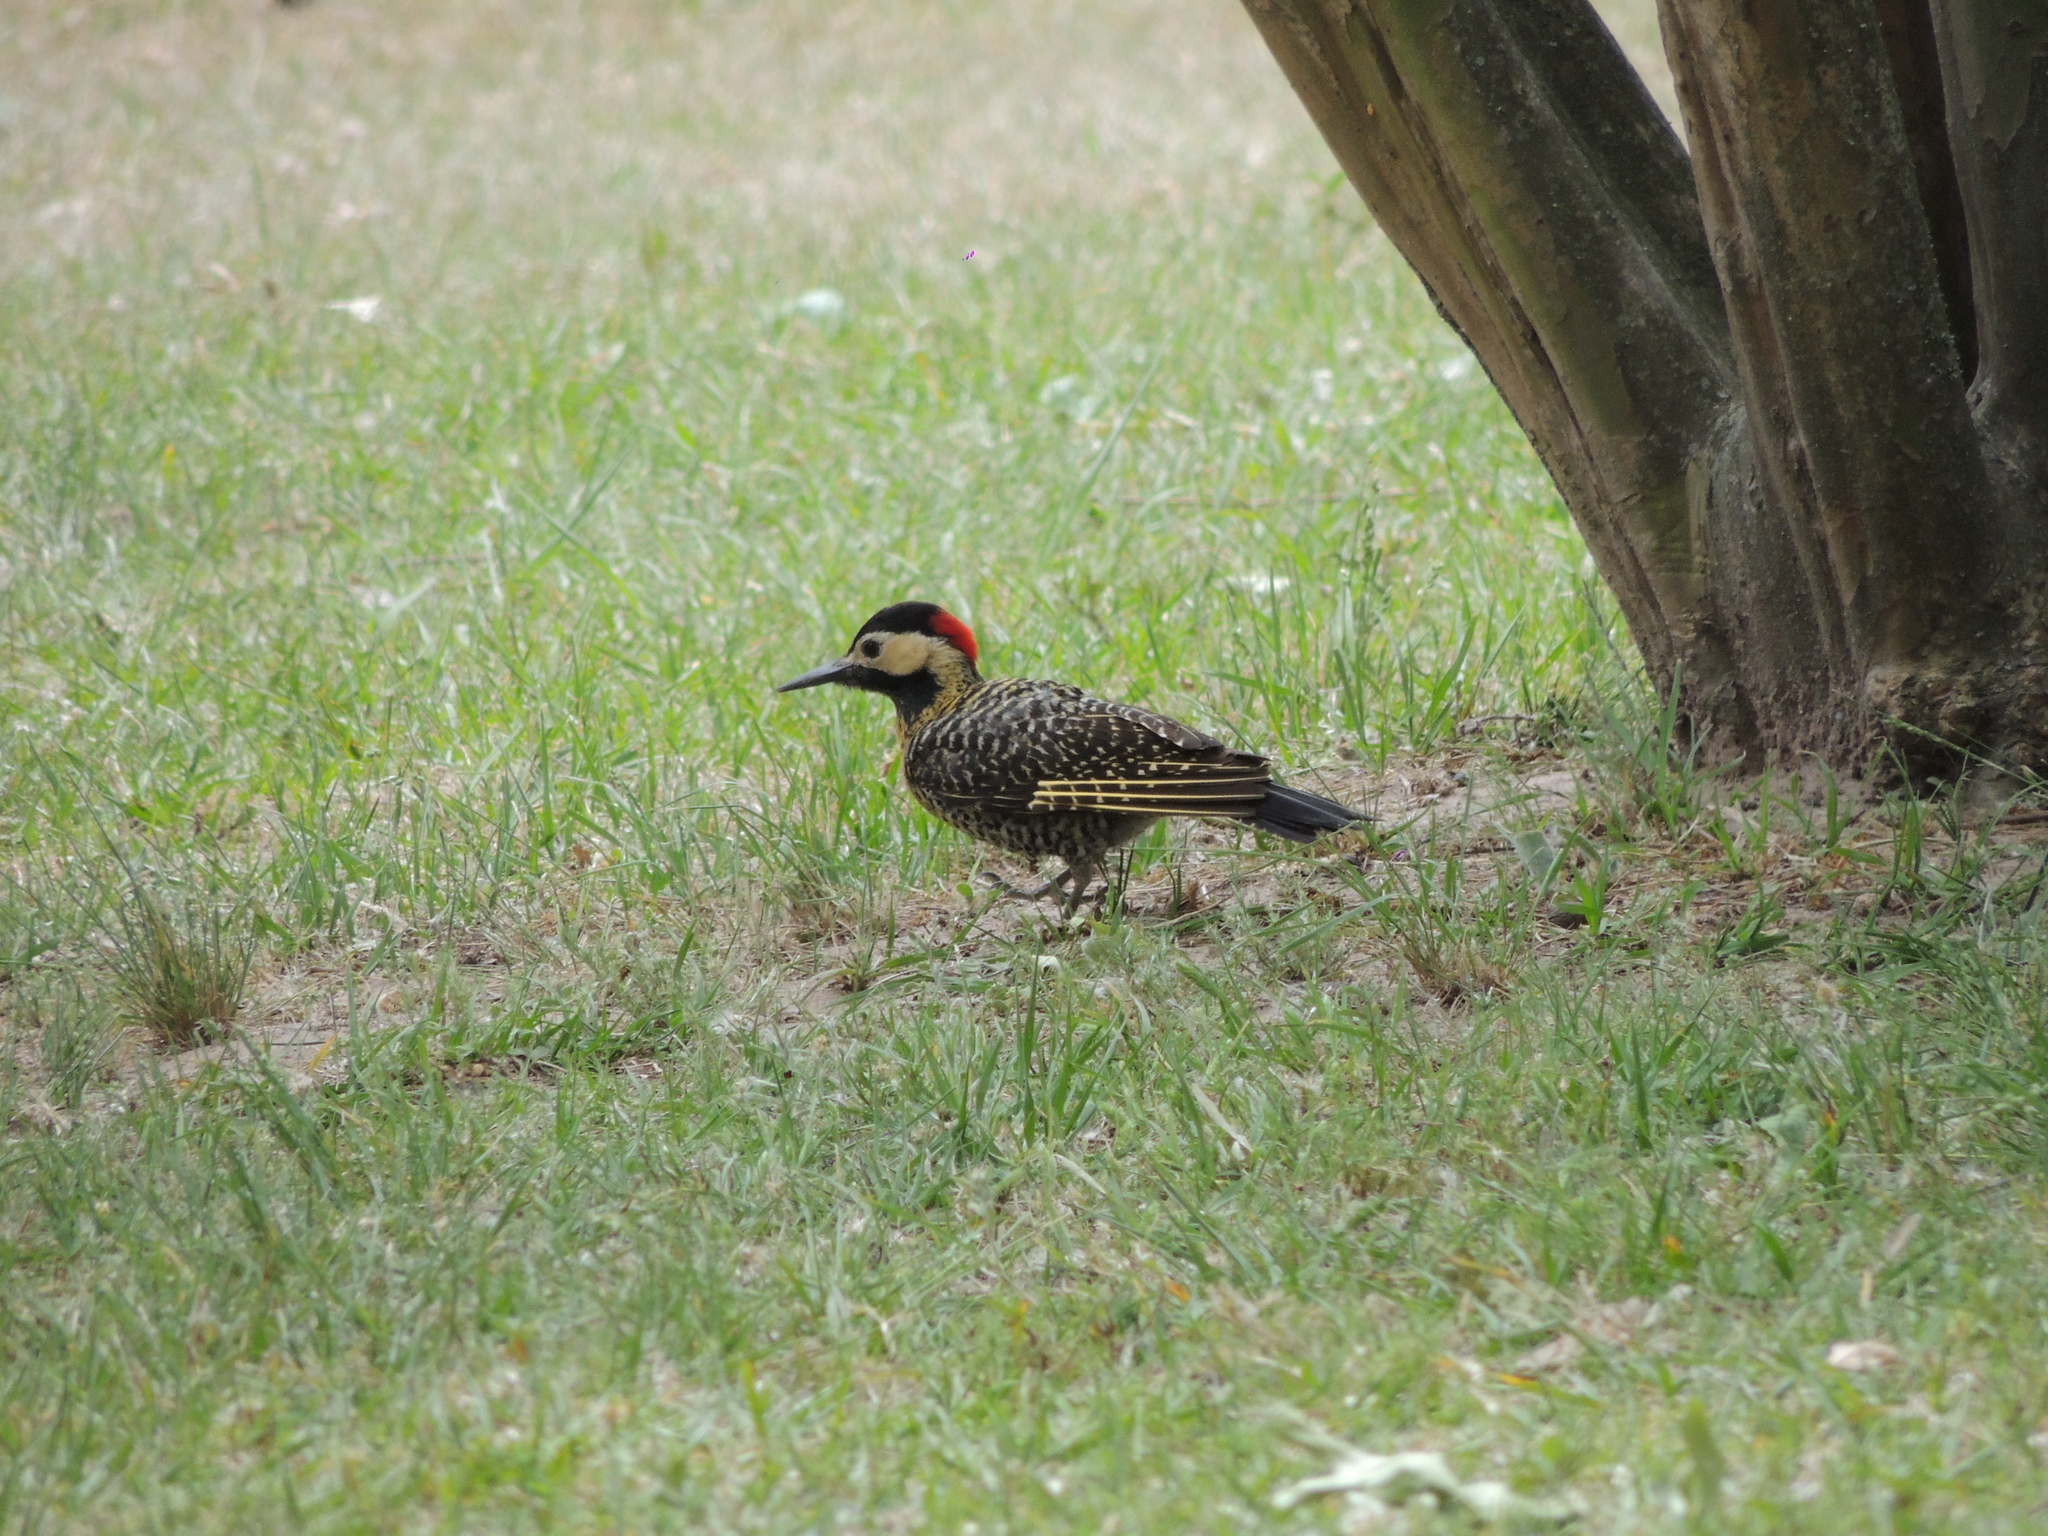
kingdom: Animalia
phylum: Chordata
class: Aves
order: Piciformes
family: Picidae
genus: Colaptes
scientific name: Colaptes melanochloros
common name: Green-barred woodpecker
